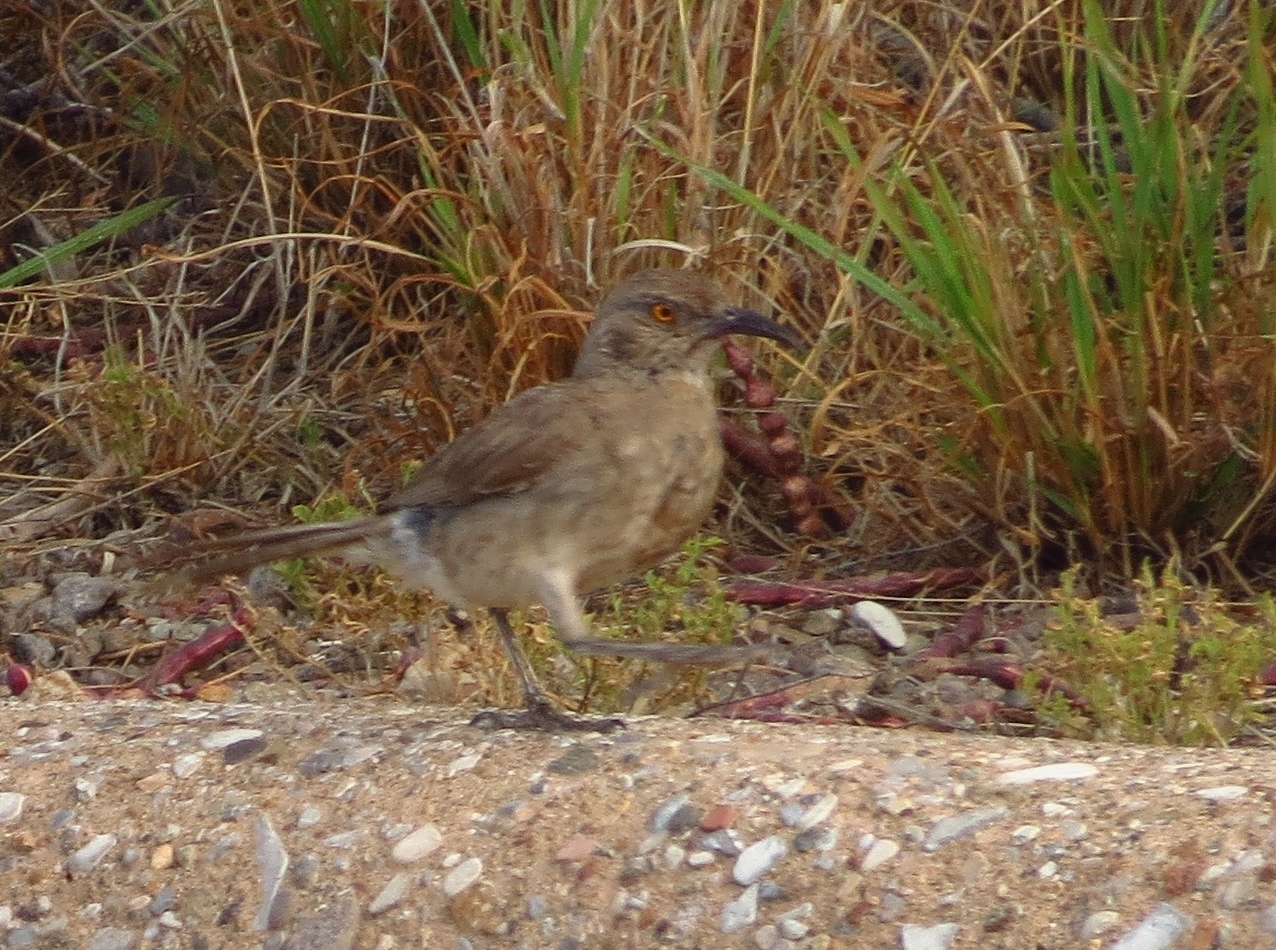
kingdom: Animalia
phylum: Chordata
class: Aves
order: Passeriformes
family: Mimidae
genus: Toxostoma
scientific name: Toxostoma curvirostre
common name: Curve-billed thrasher
